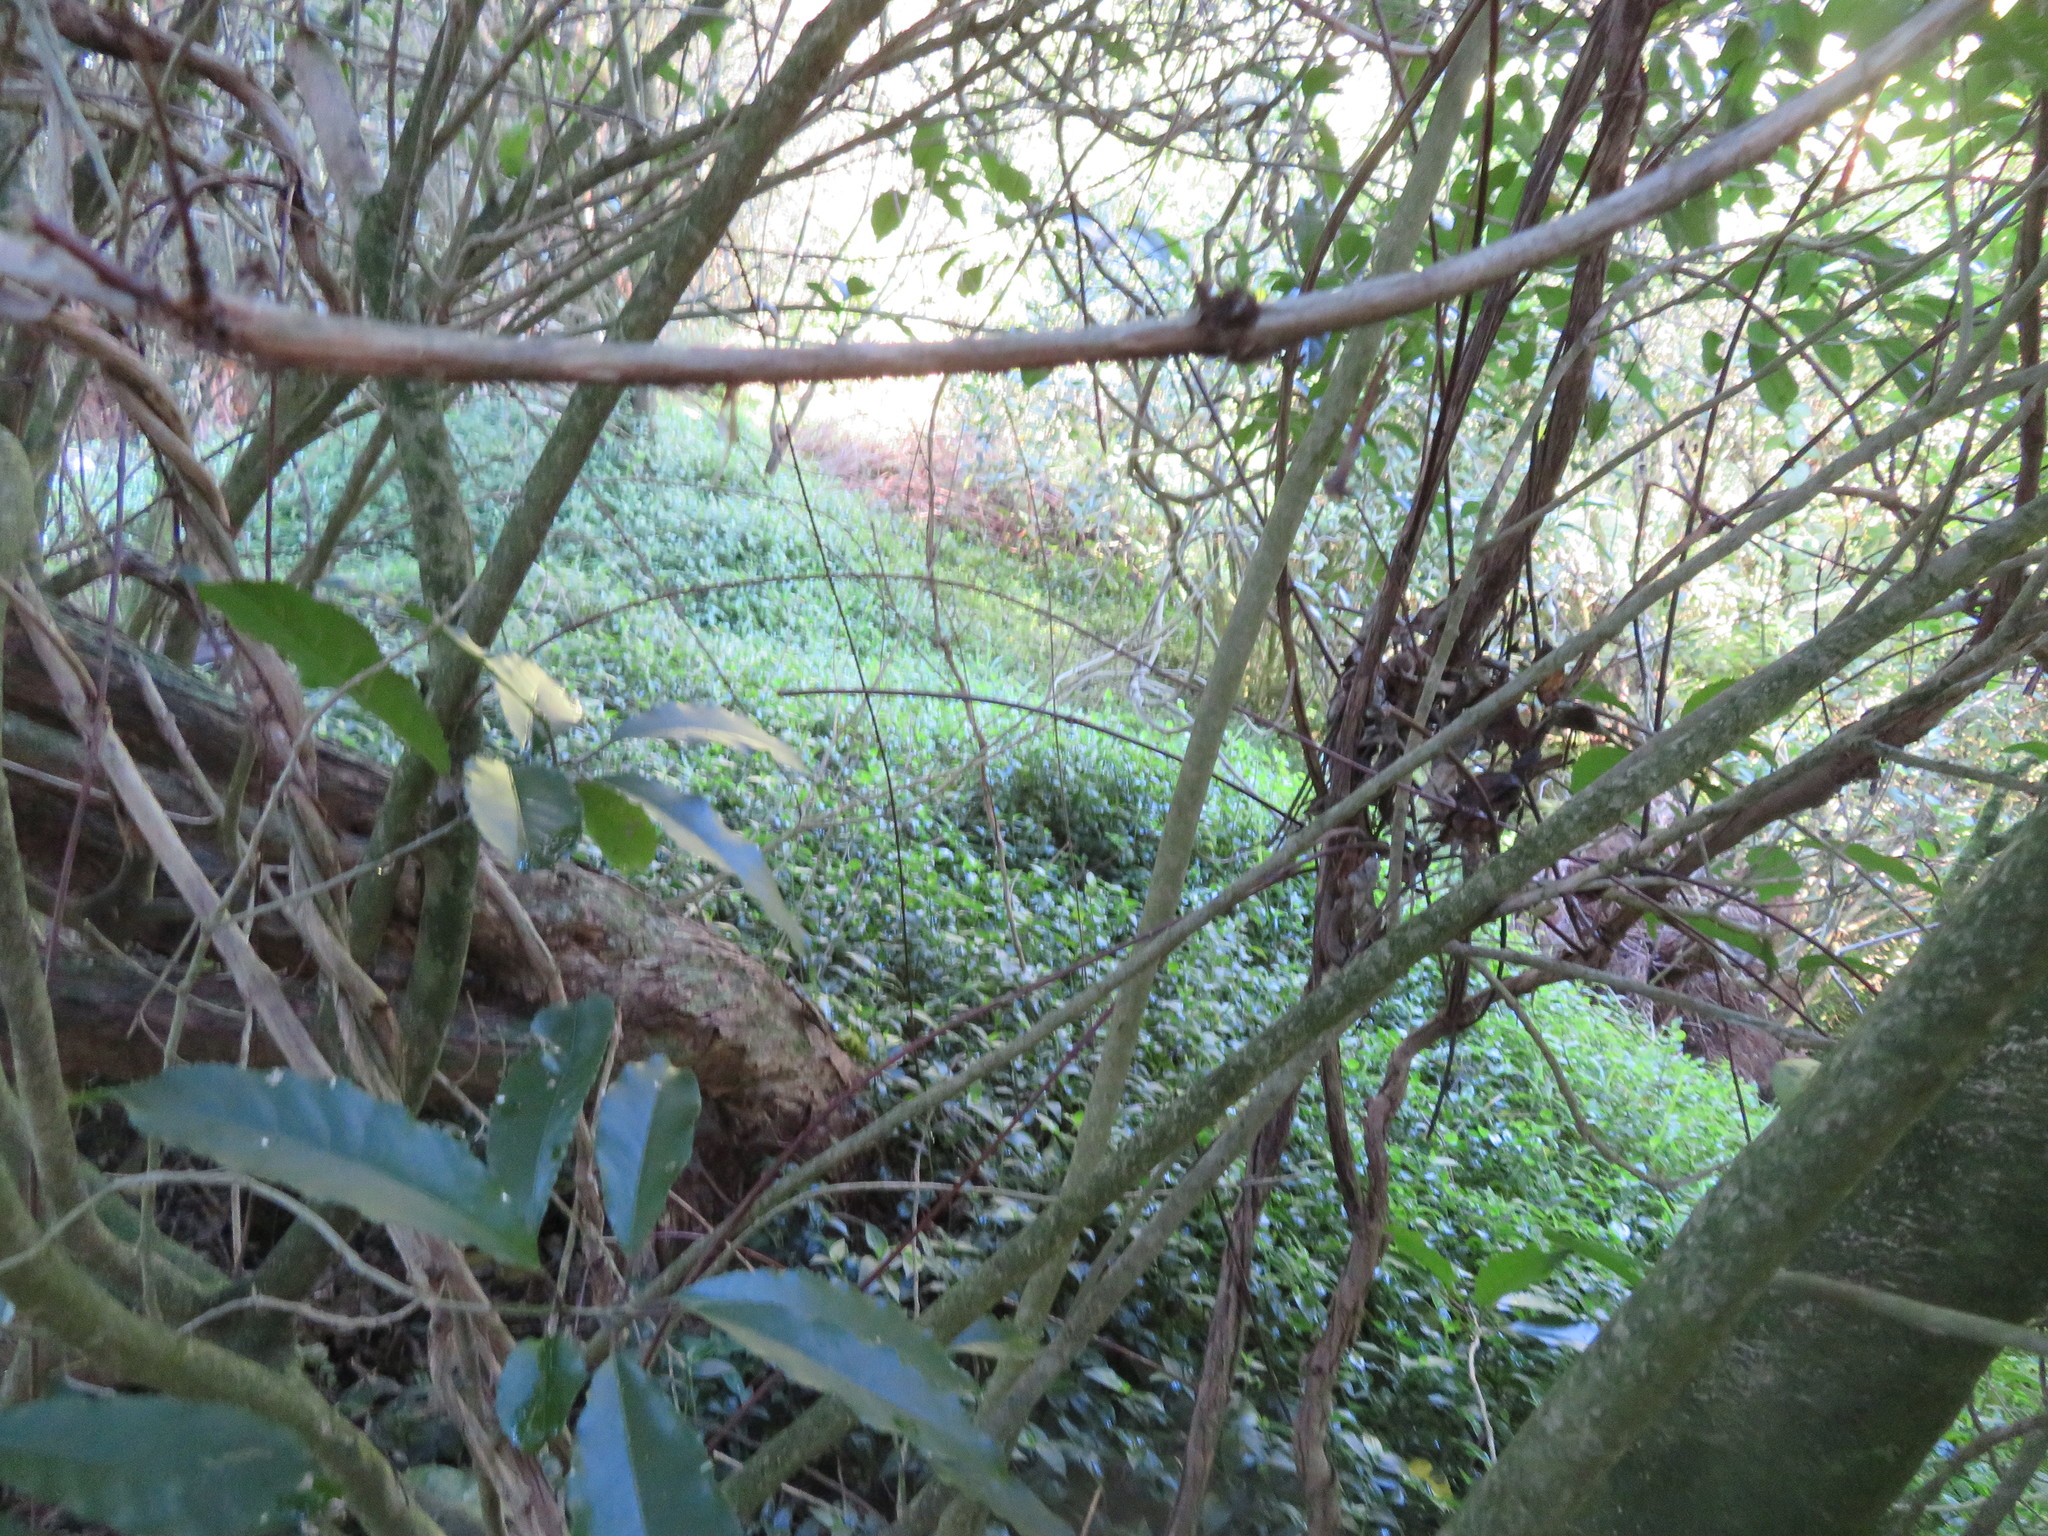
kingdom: Plantae
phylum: Tracheophyta
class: Magnoliopsida
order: Dipsacales
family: Caprifoliaceae
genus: Lonicera
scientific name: Lonicera japonica
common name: Japanese honeysuckle
